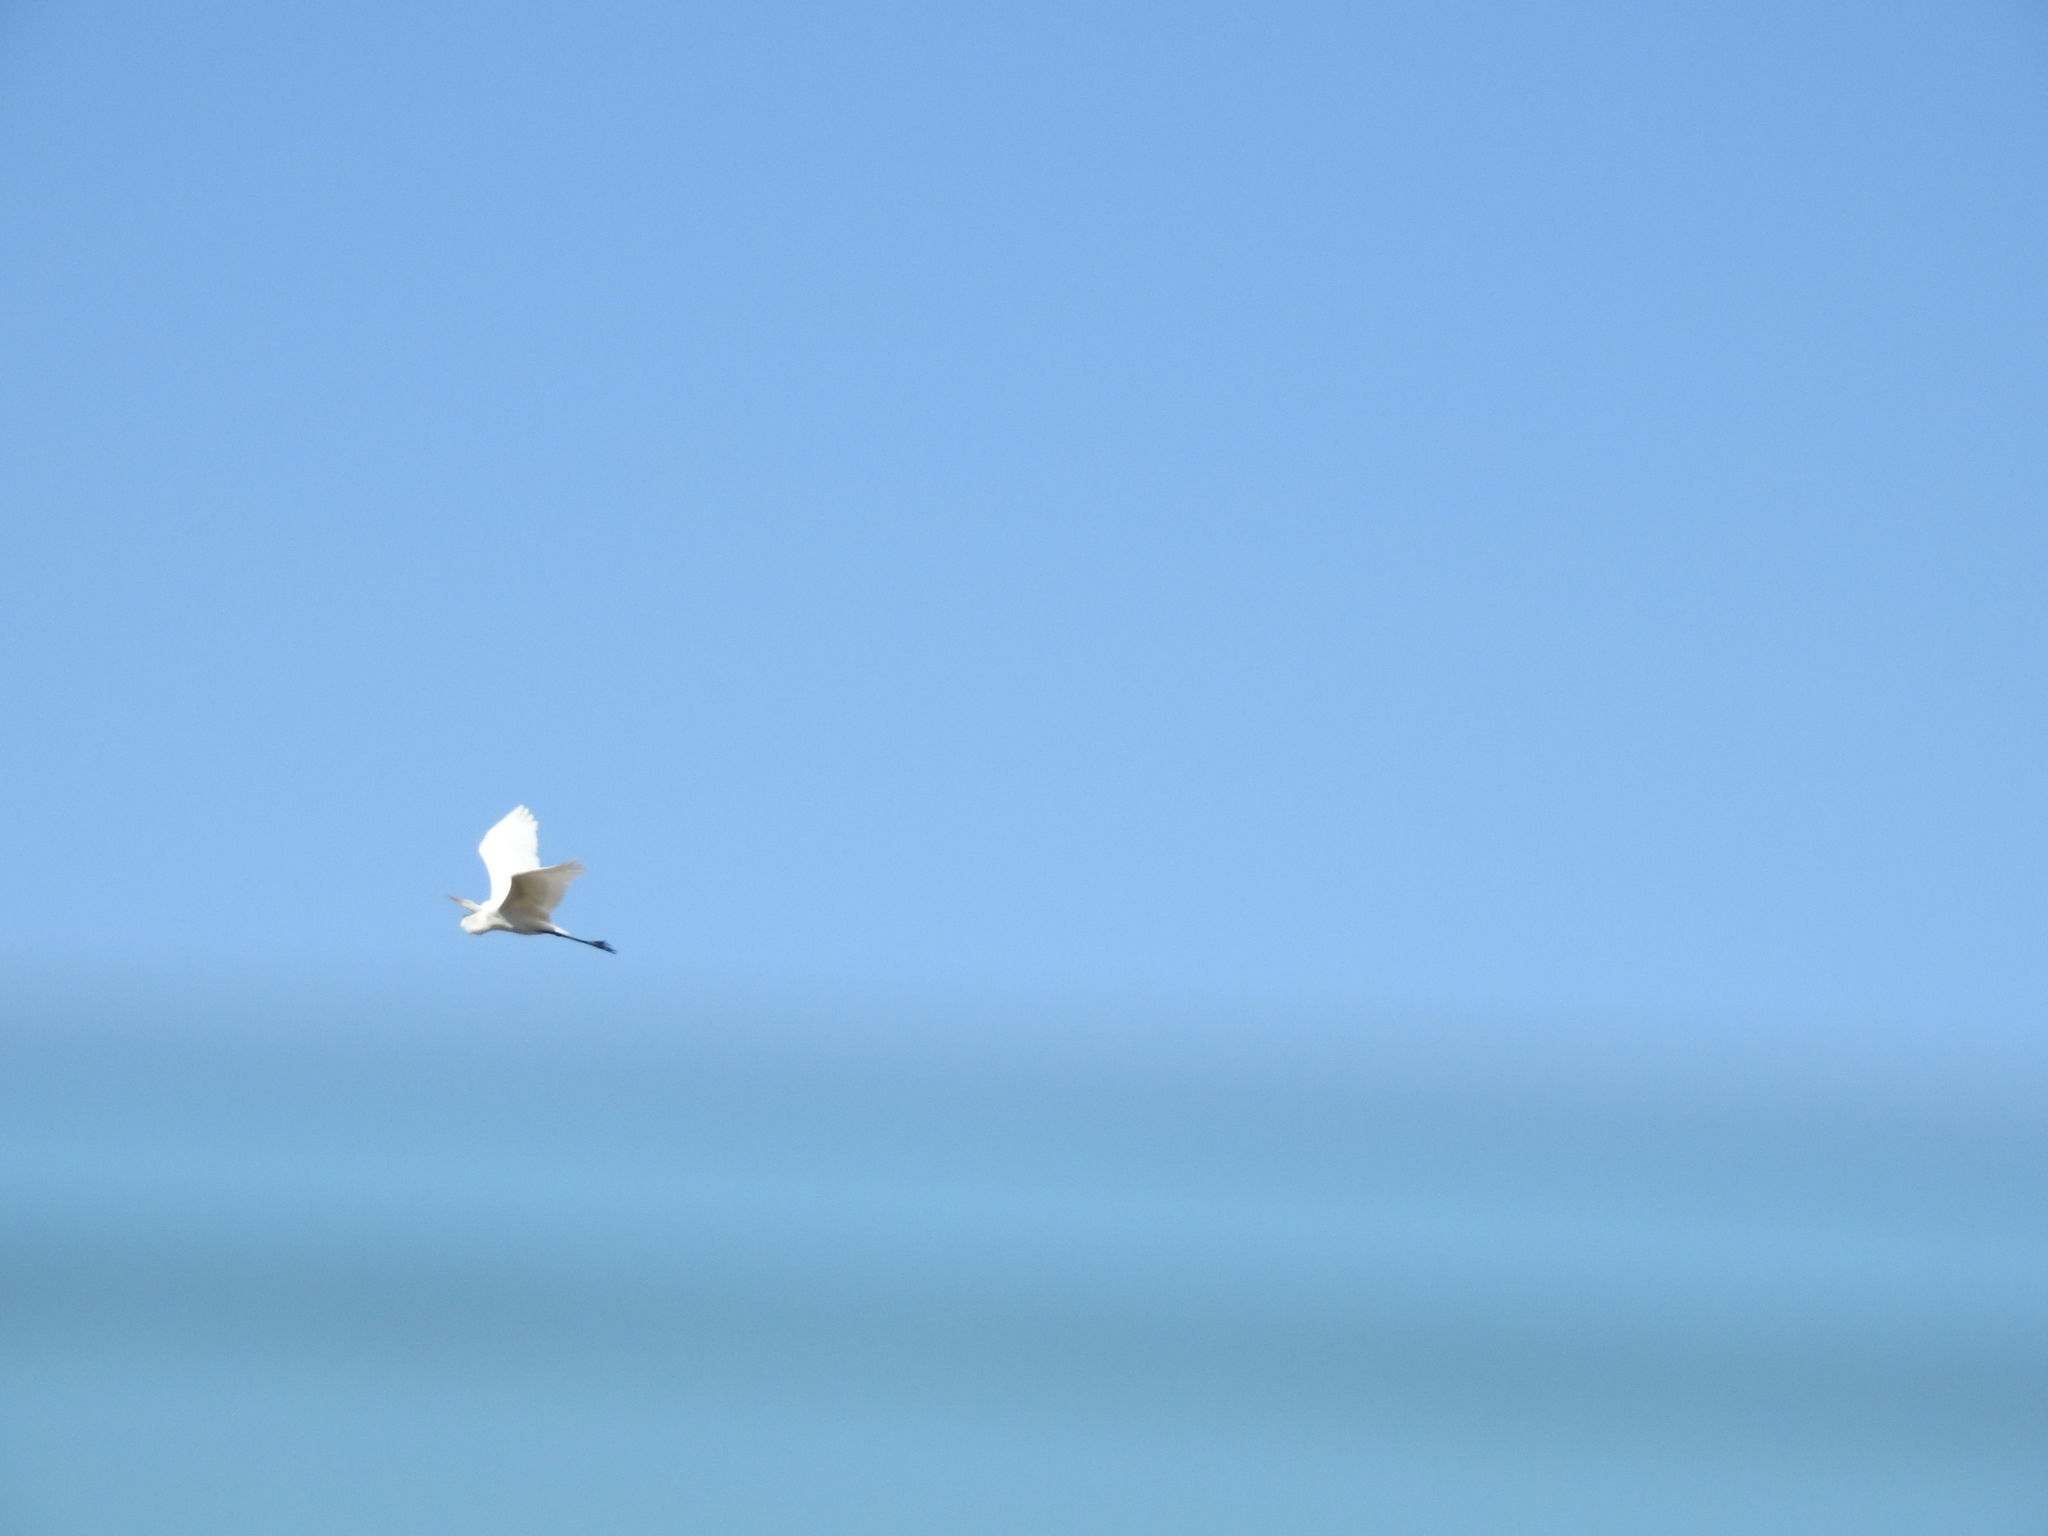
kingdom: Animalia
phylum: Chordata
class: Aves
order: Pelecaniformes
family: Ardeidae
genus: Ardea
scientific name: Ardea alba
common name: Great egret
